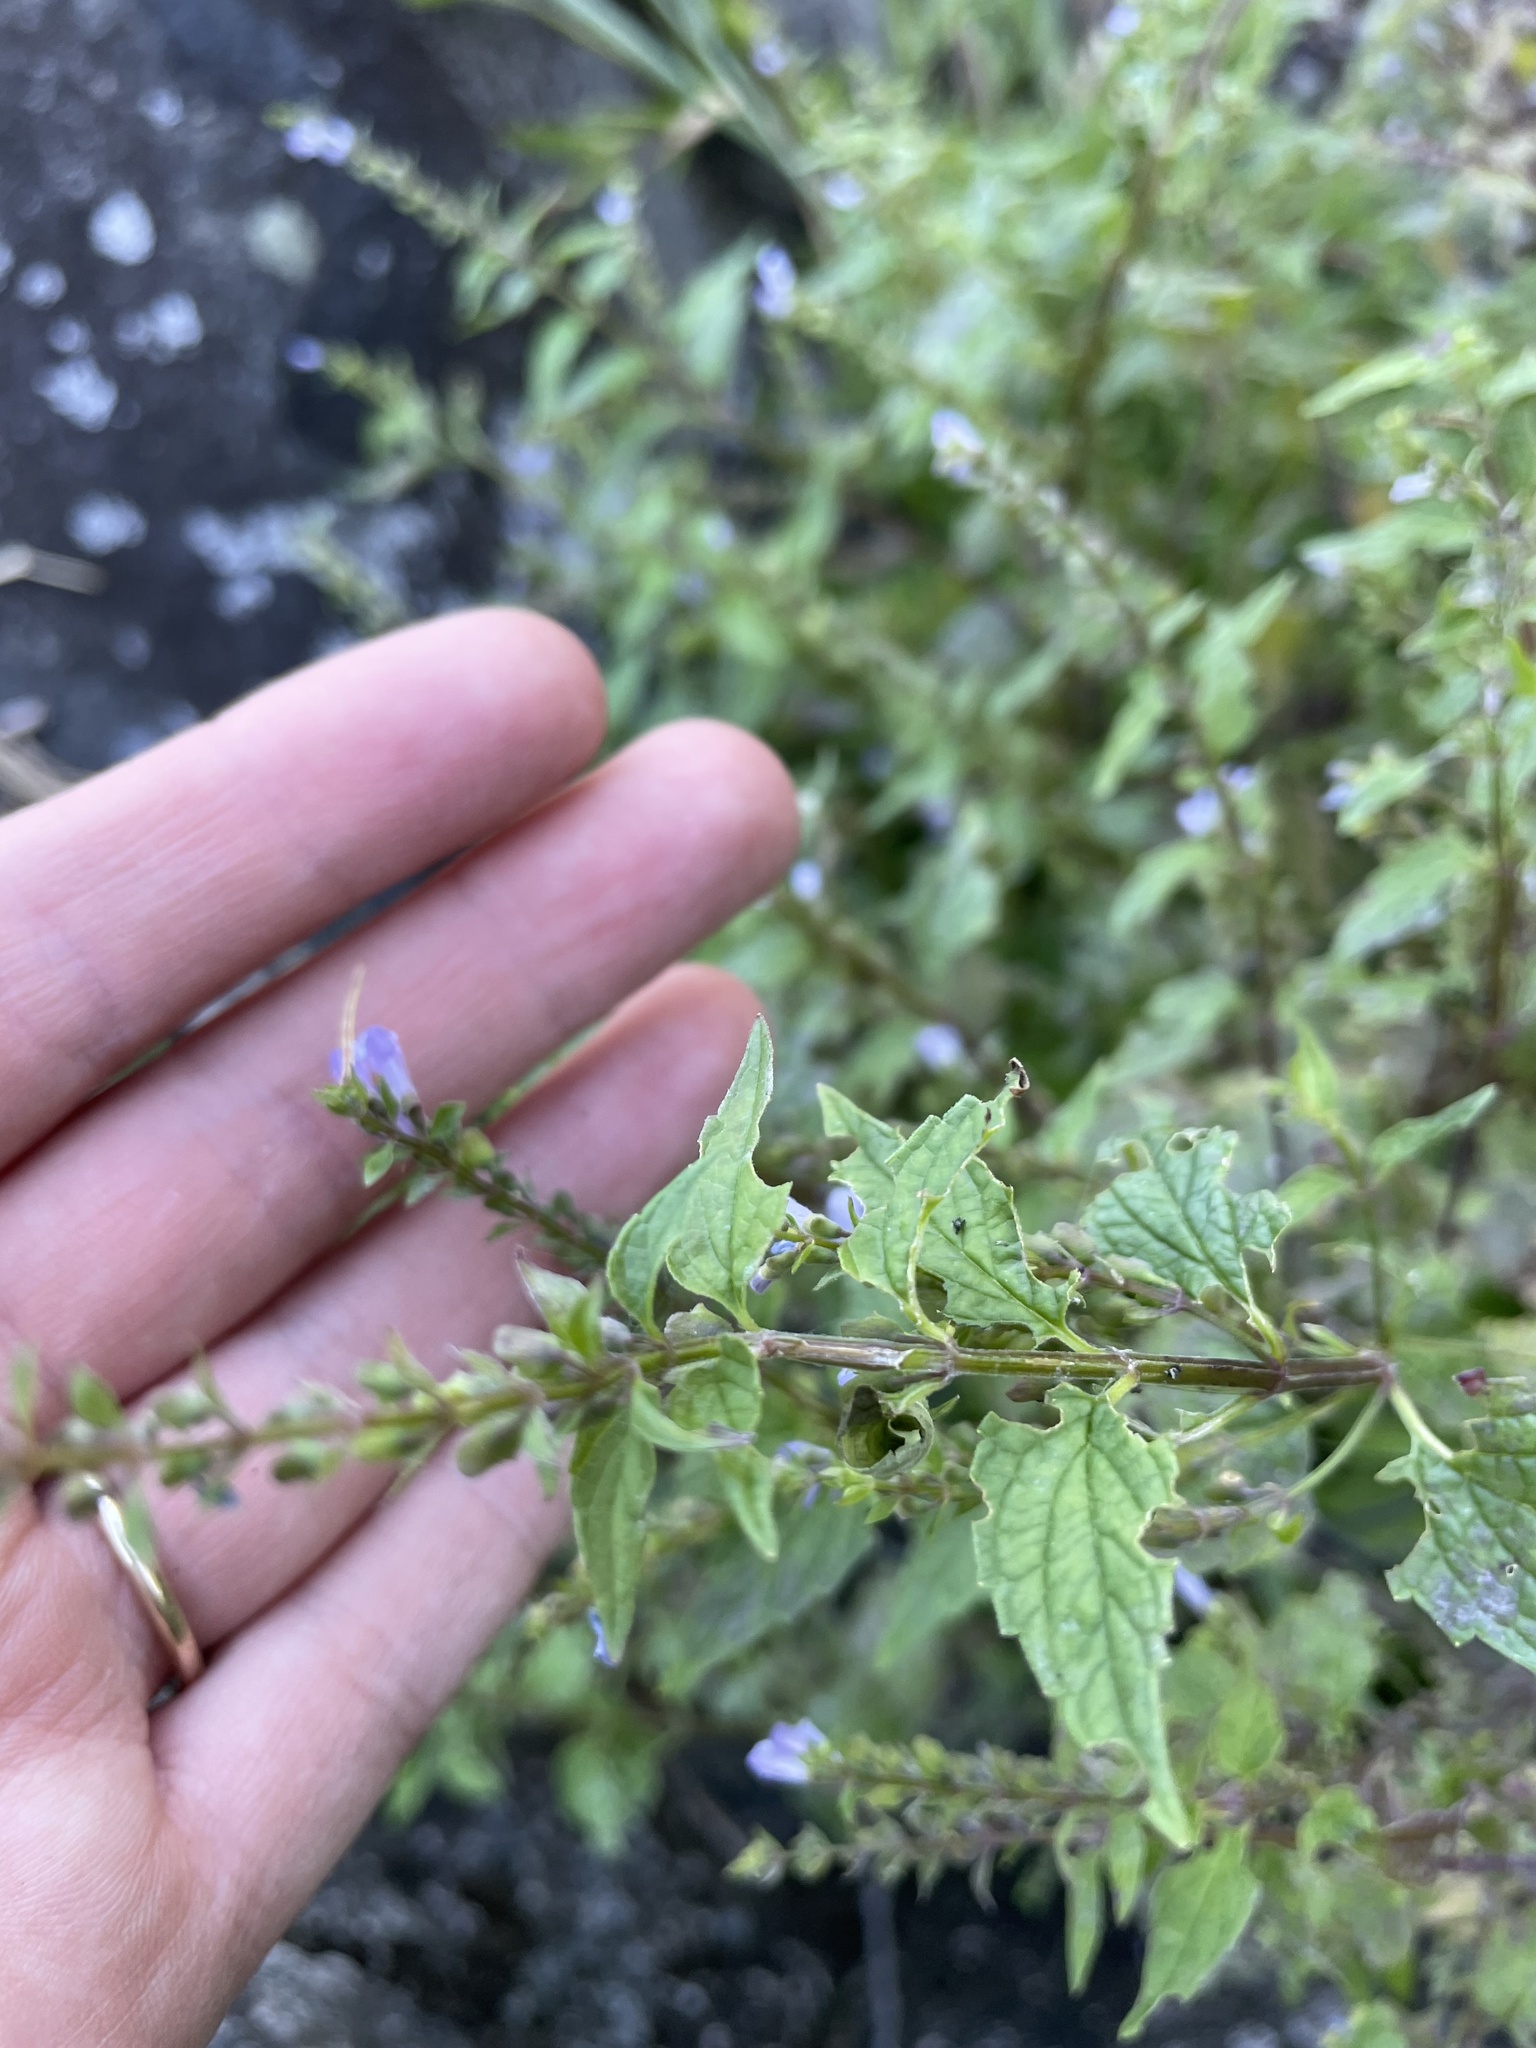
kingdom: Plantae
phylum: Tracheophyta
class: Magnoliopsida
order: Lamiales
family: Lamiaceae
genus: Scutellaria
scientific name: Scutellaria lateriflora
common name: Blue skullcap
